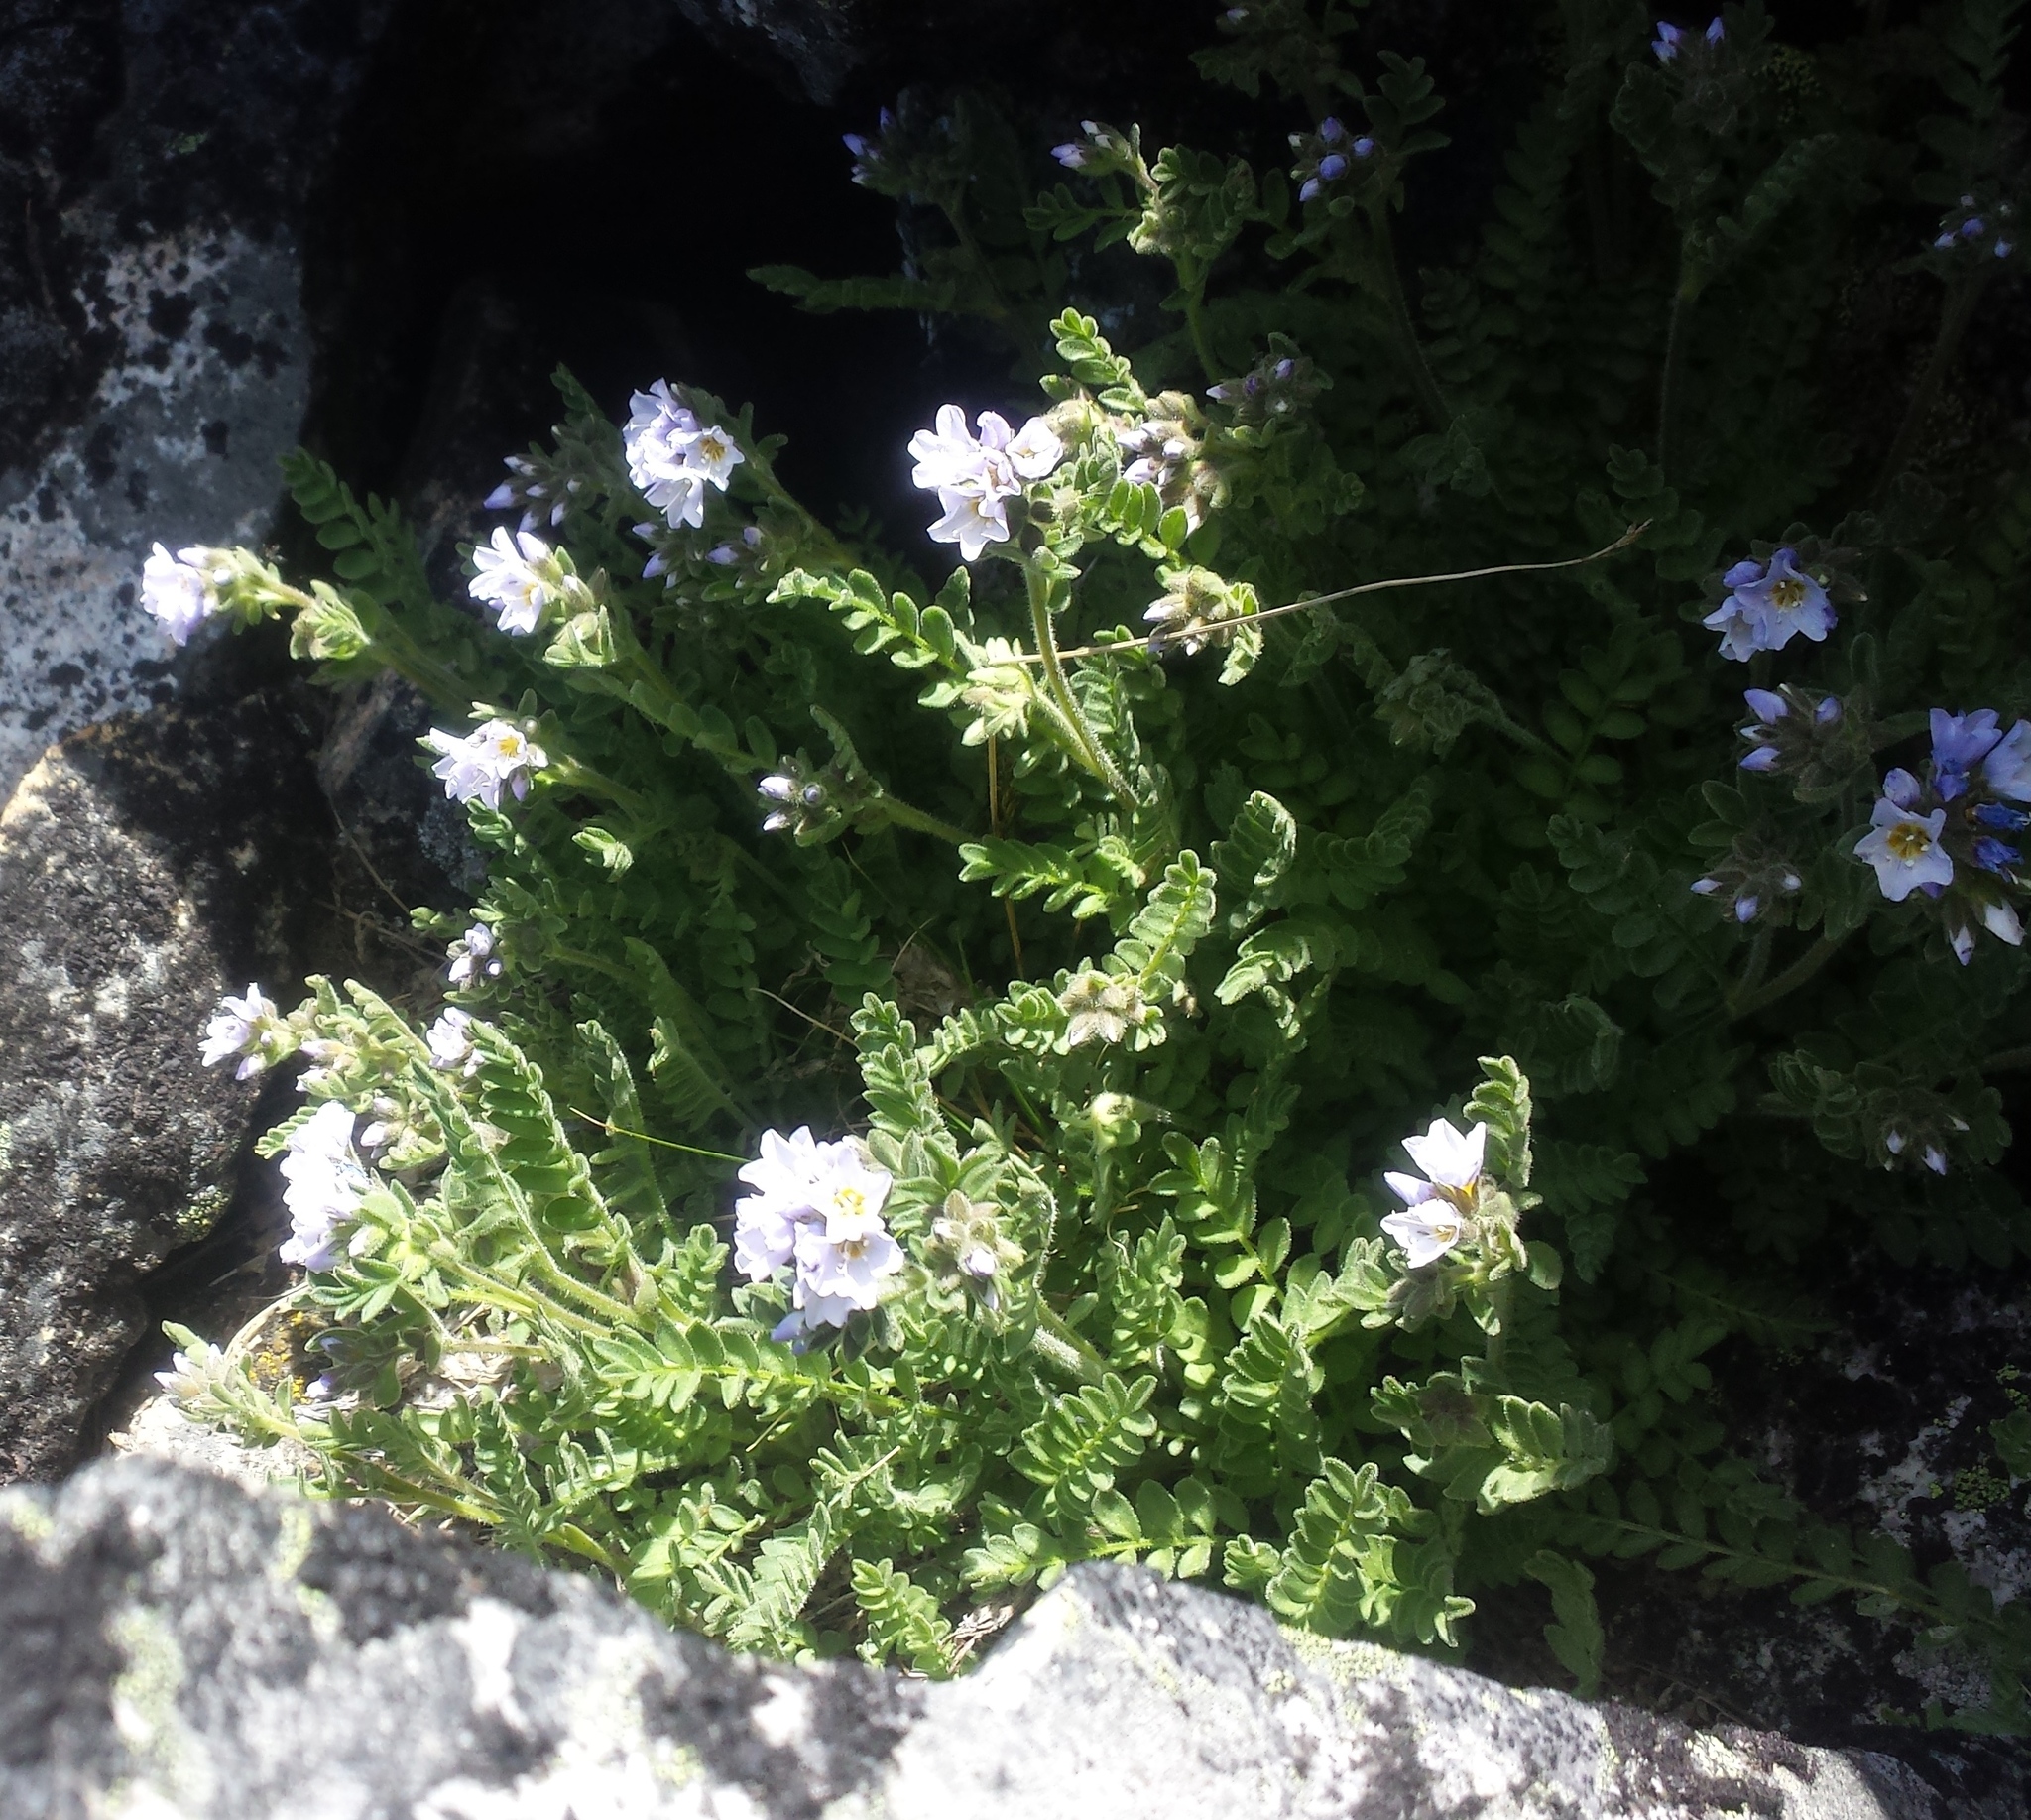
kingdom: Plantae
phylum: Tracheophyta
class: Magnoliopsida
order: Ericales
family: Polemoniaceae
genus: Polemonium
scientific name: Polemonium pulcherrimum
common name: Short jacob's-ladder
